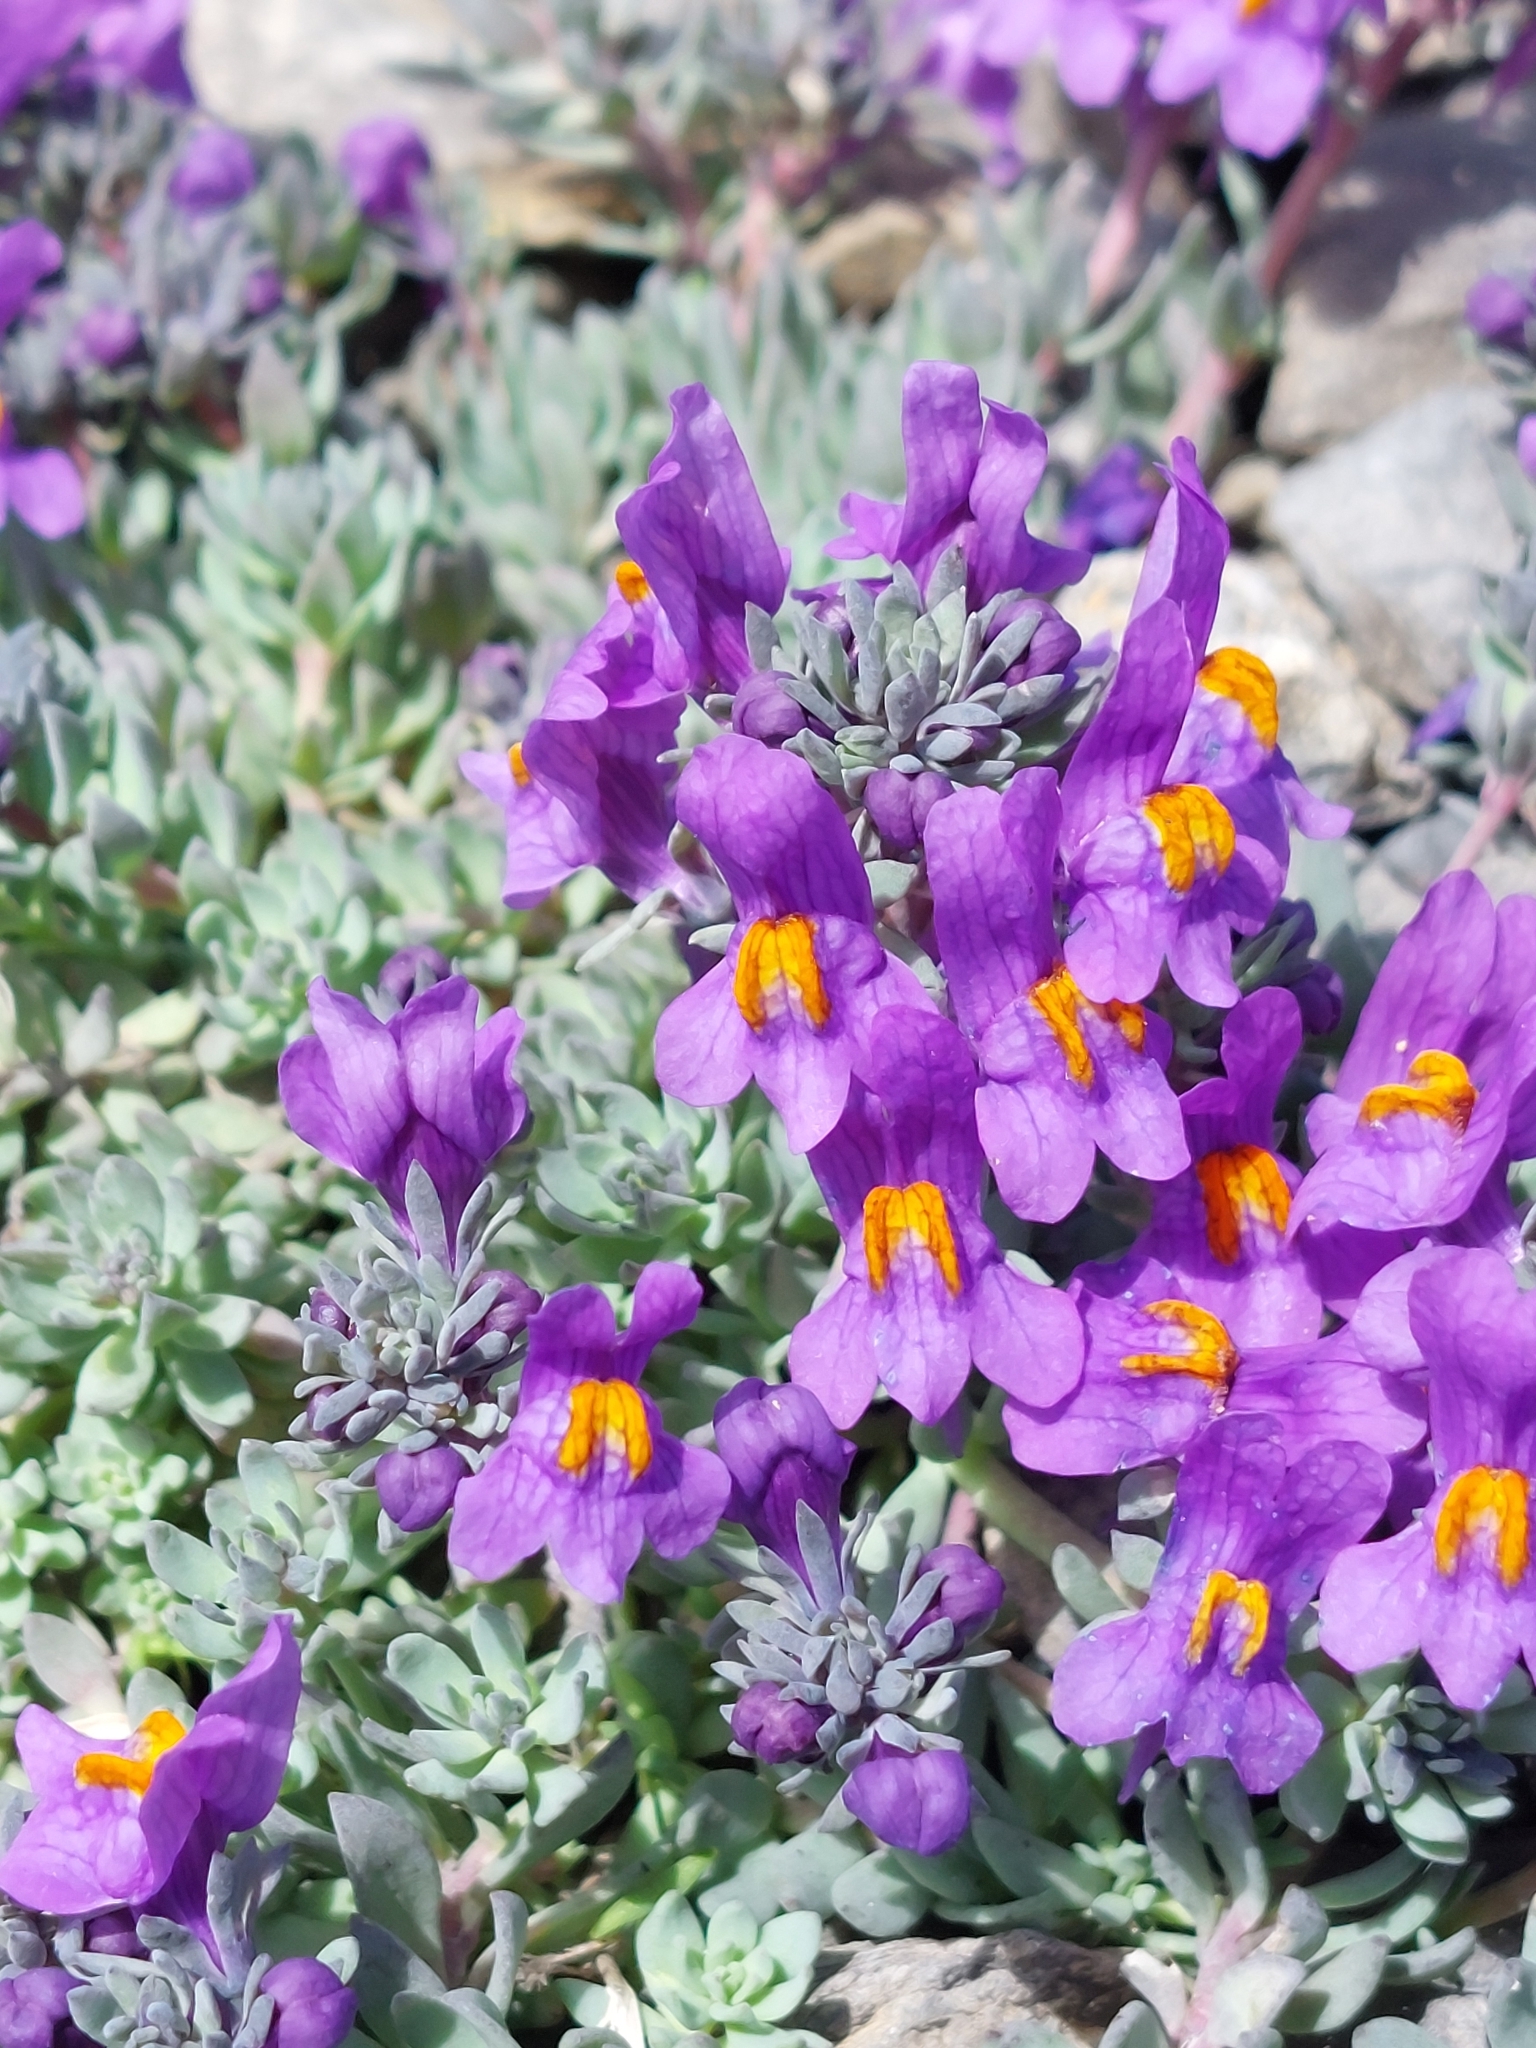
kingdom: Plantae
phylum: Tracheophyta
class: Magnoliopsida
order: Lamiales
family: Plantaginaceae
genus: Linaria
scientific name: Linaria alpina
